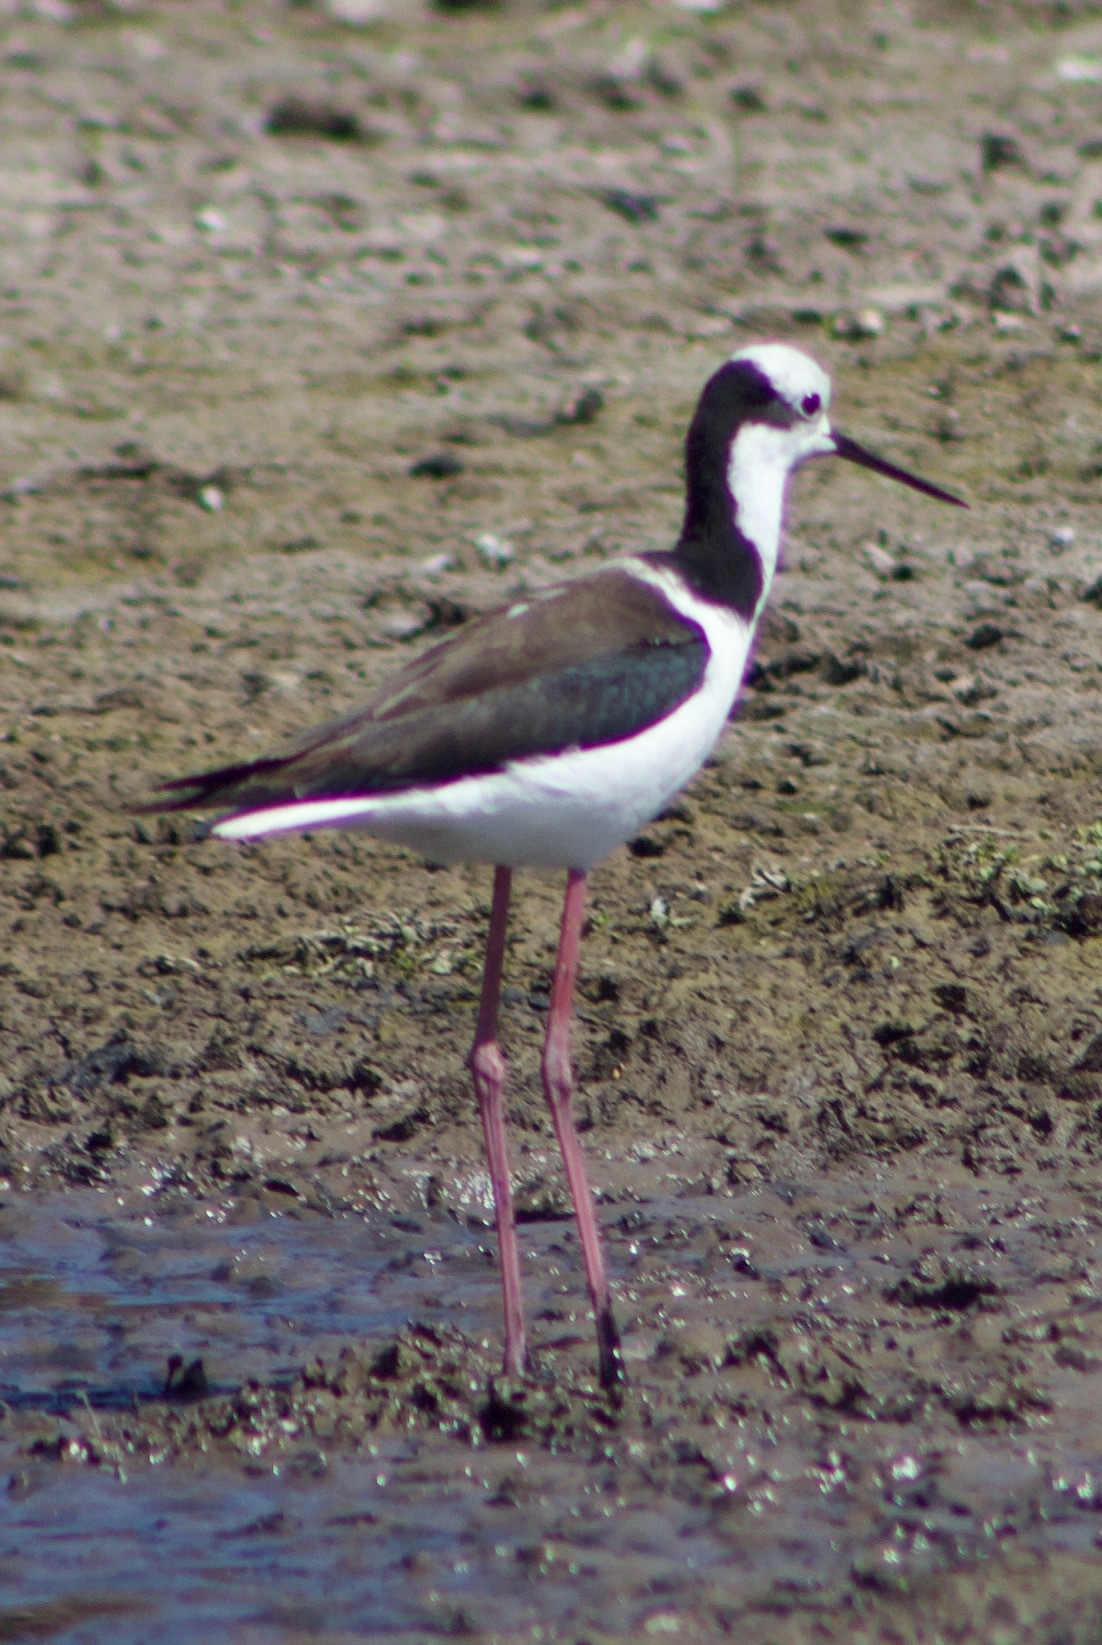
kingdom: Animalia
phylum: Chordata
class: Aves
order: Charadriiformes
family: Recurvirostridae
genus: Himantopus
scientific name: Himantopus mexicanus
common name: Black-necked stilt
